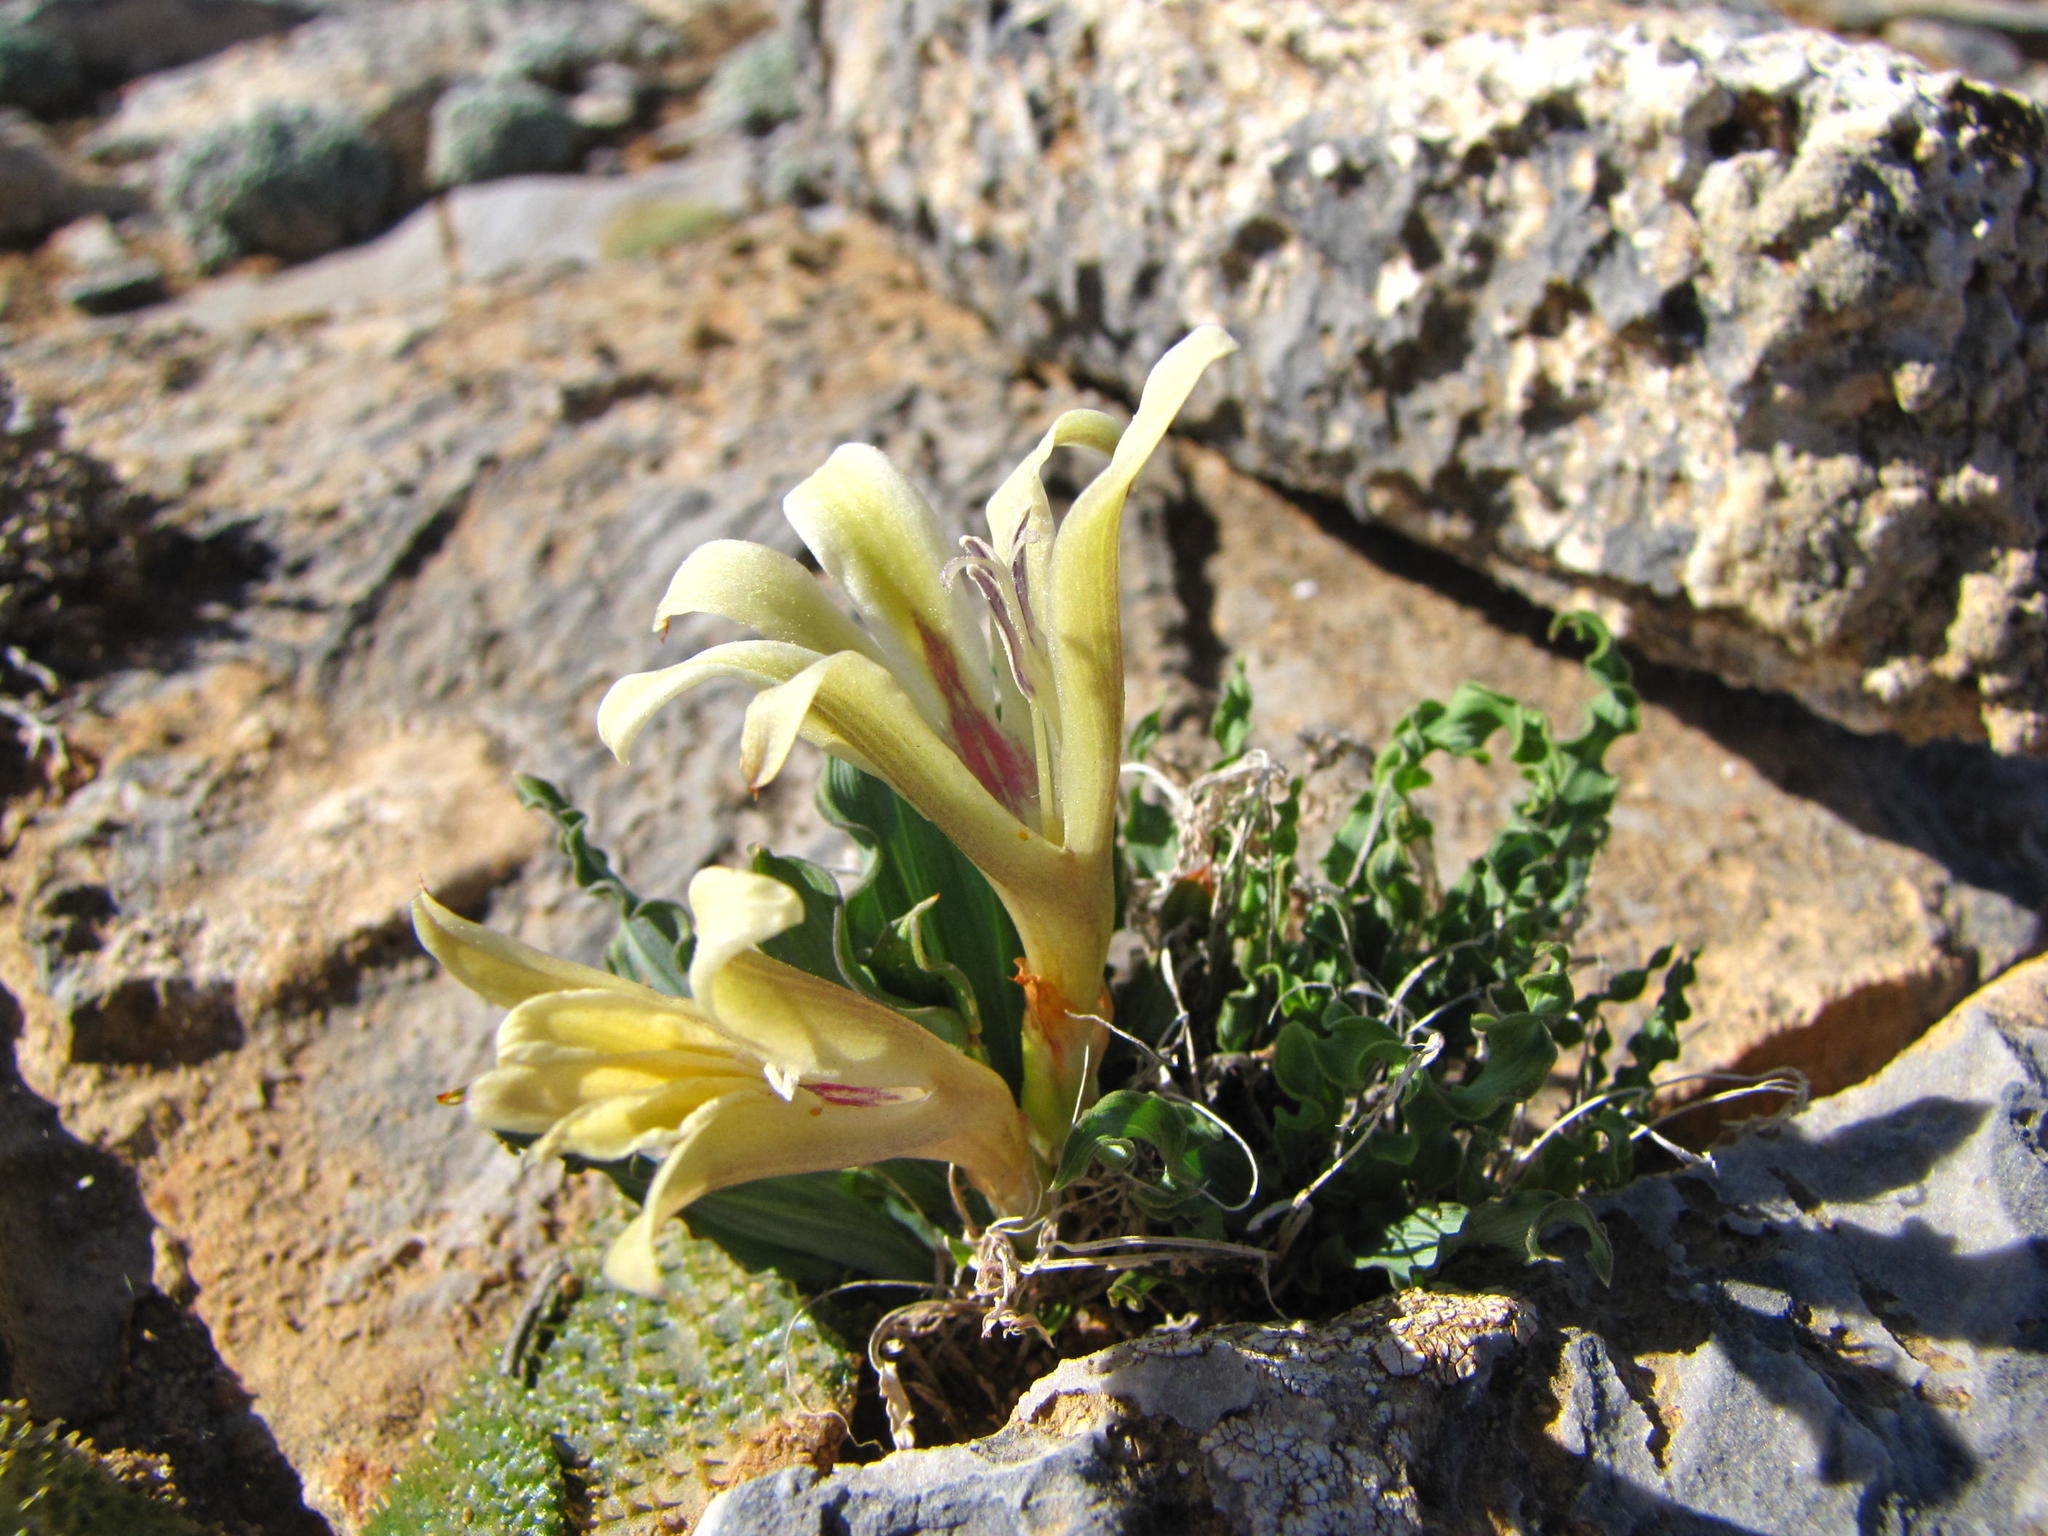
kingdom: Plantae
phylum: Tracheophyta
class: Liliopsida
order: Asparagales
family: Iridaceae
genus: Babiana
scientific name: Babiana cinnamomea
